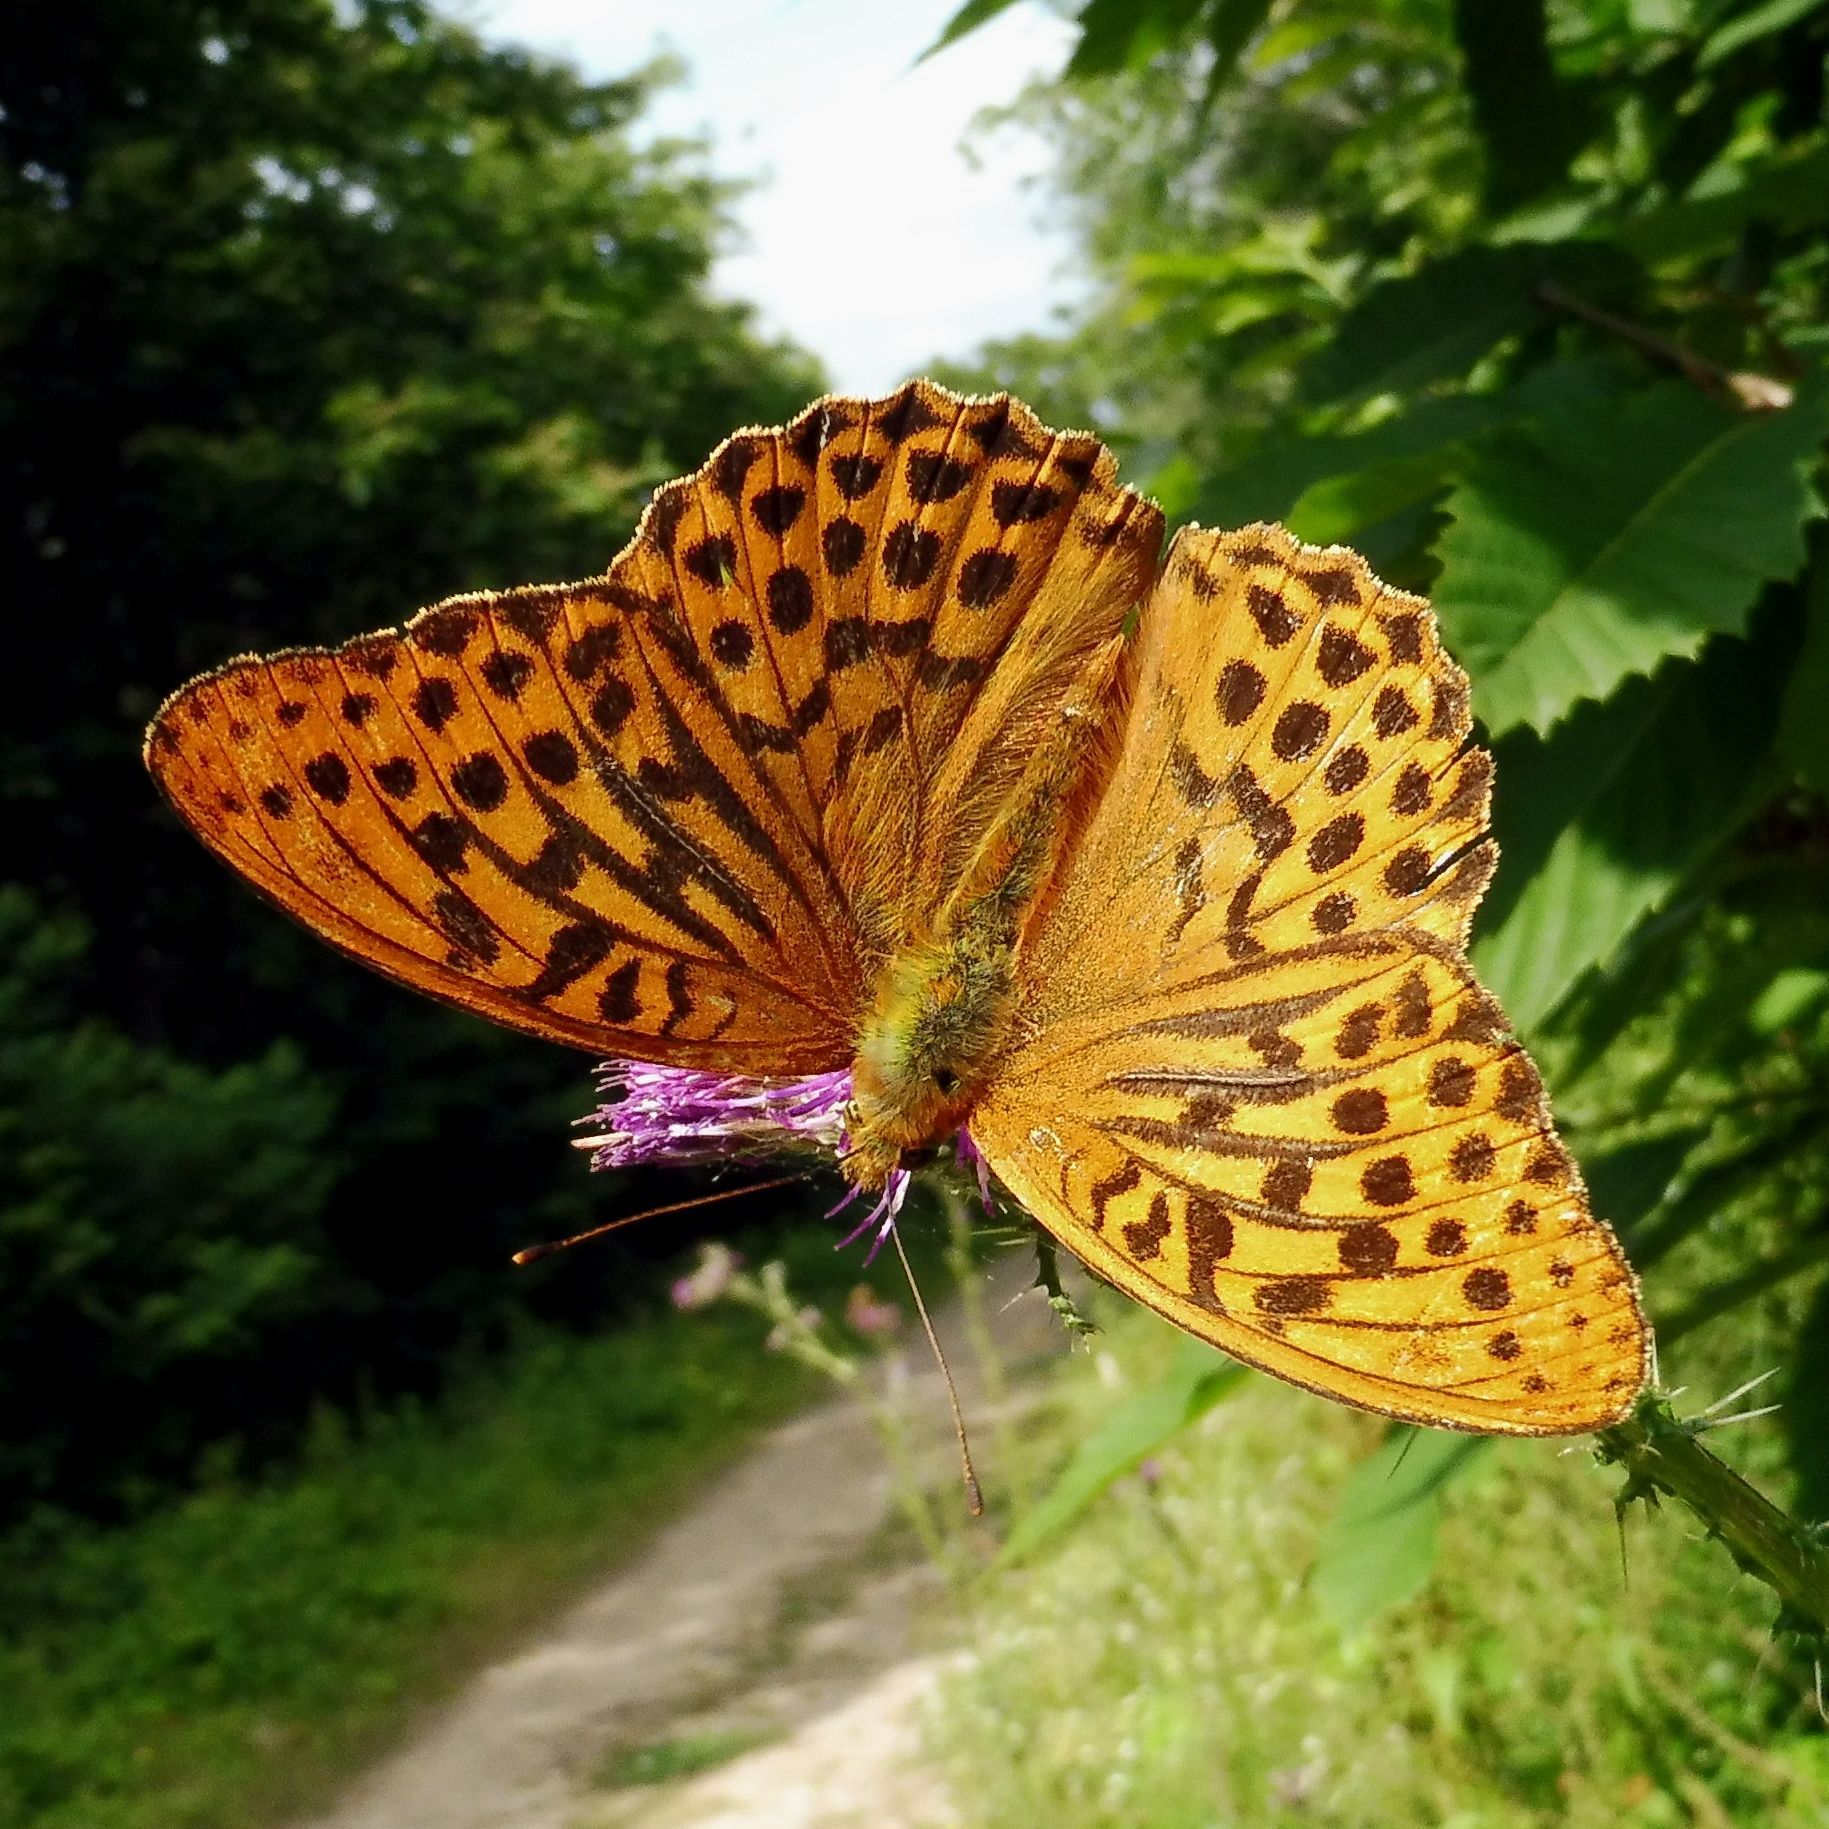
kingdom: Animalia
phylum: Arthropoda
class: Insecta
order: Lepidoptera
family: Nymphalidae
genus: Argynnis
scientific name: Argynnis paphia
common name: Silver-washed fritillary
